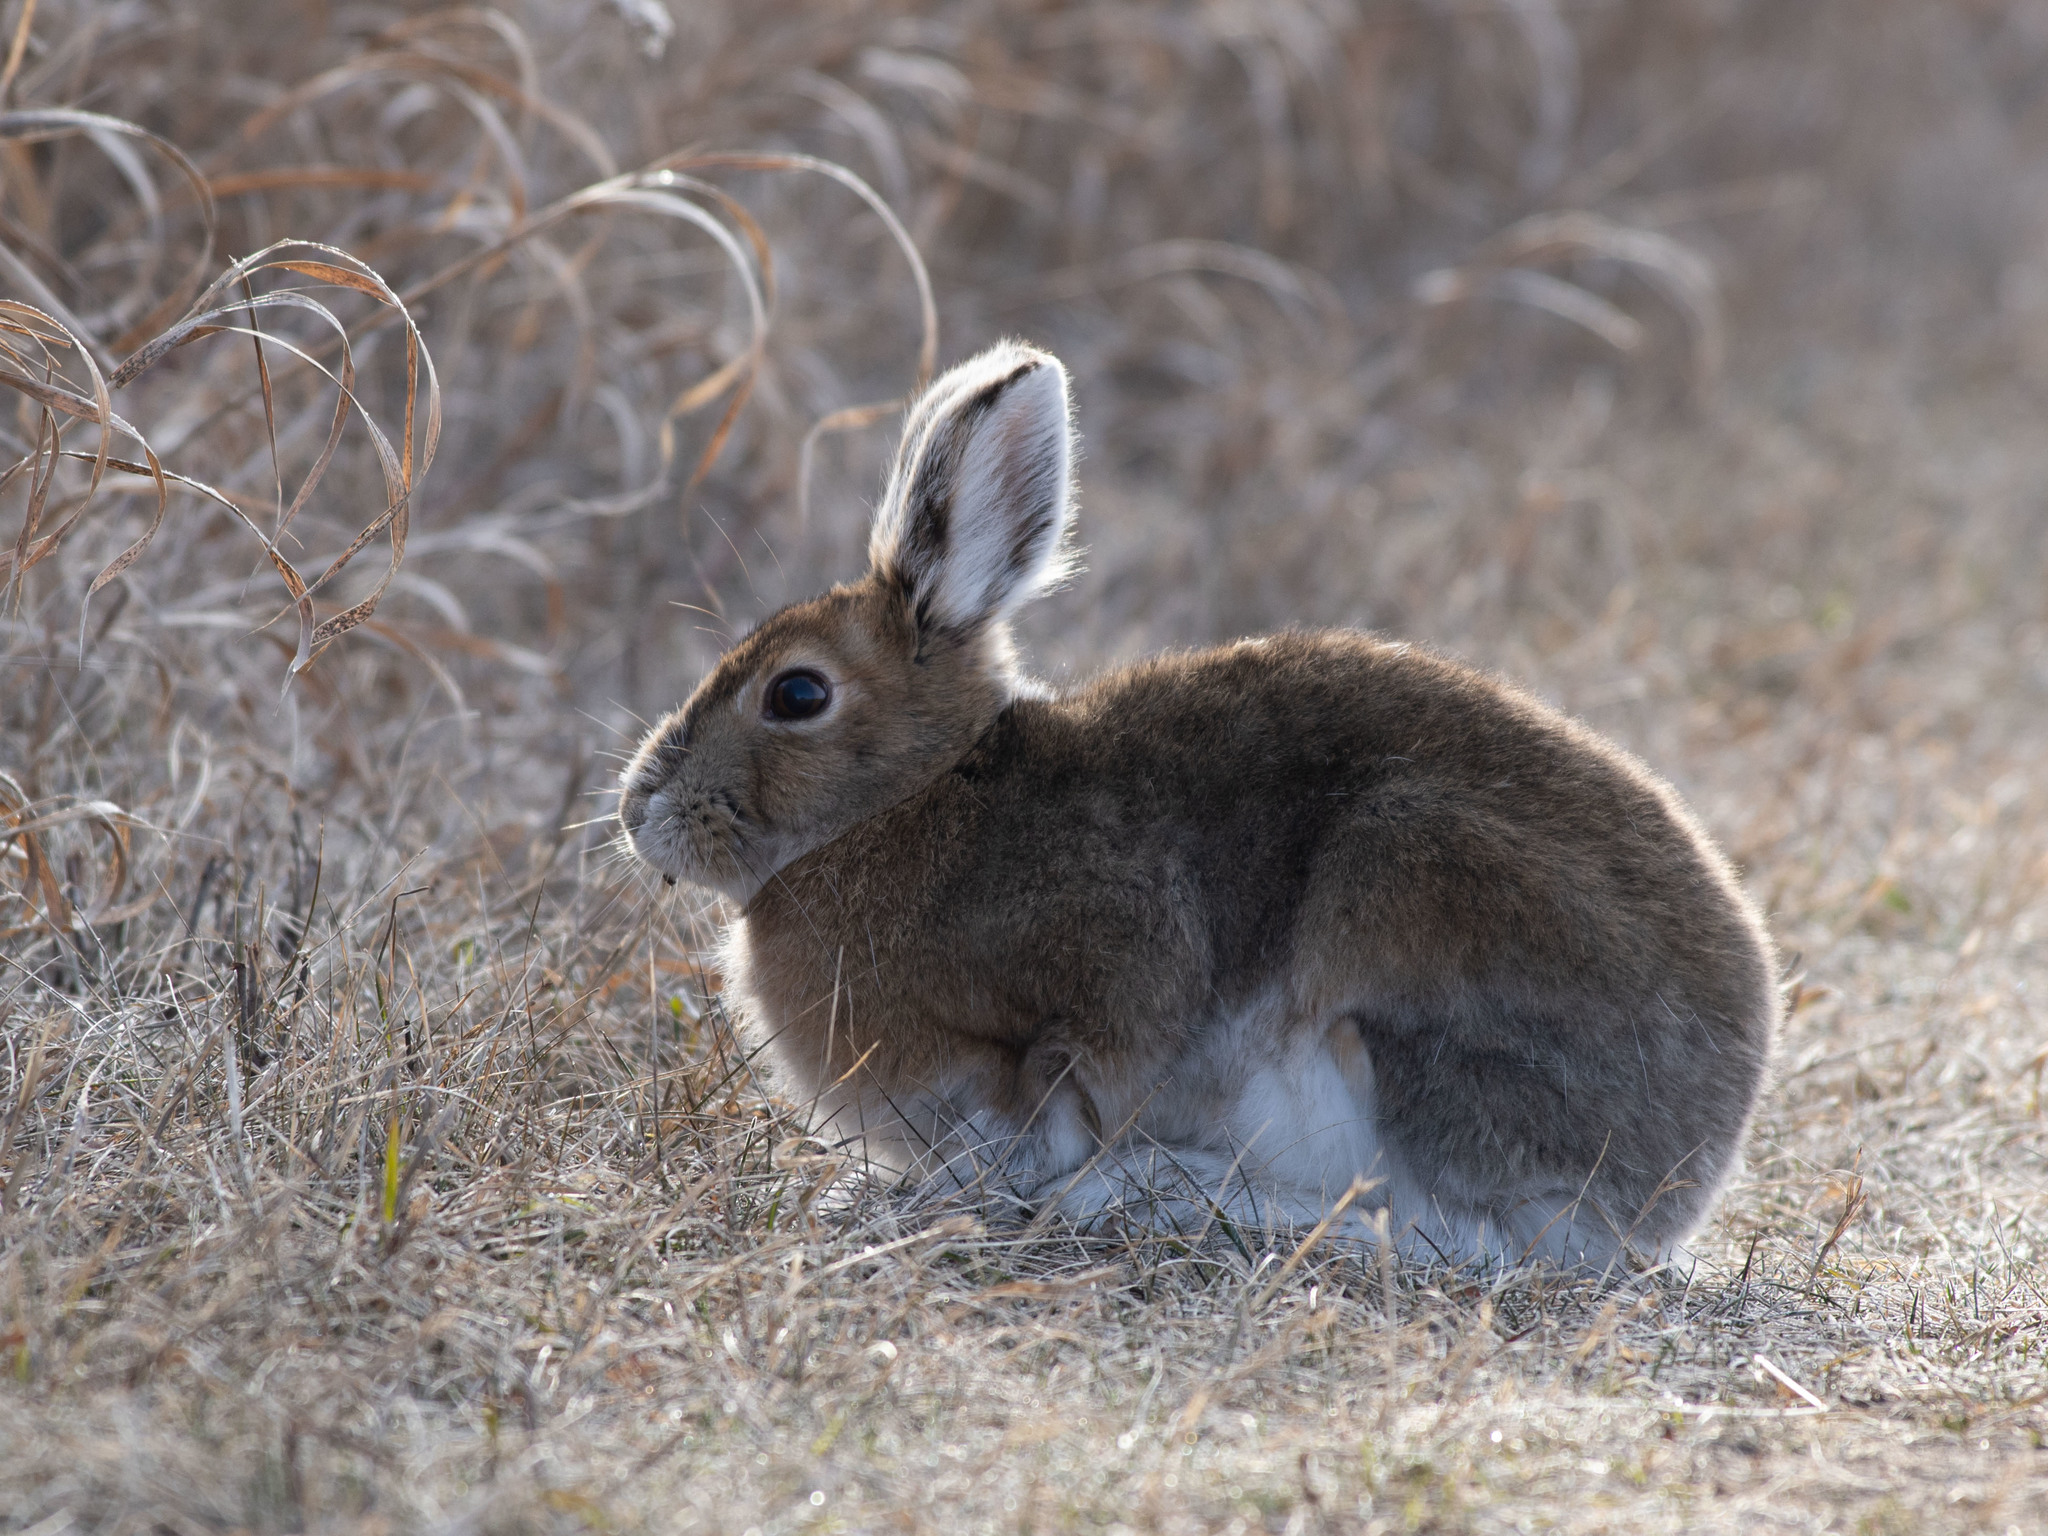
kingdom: Animalia
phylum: Chordata
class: Mammalia
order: Lagomorpha
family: Leporidae
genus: Lepus
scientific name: Lepus americanus
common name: Snowshoe hare
